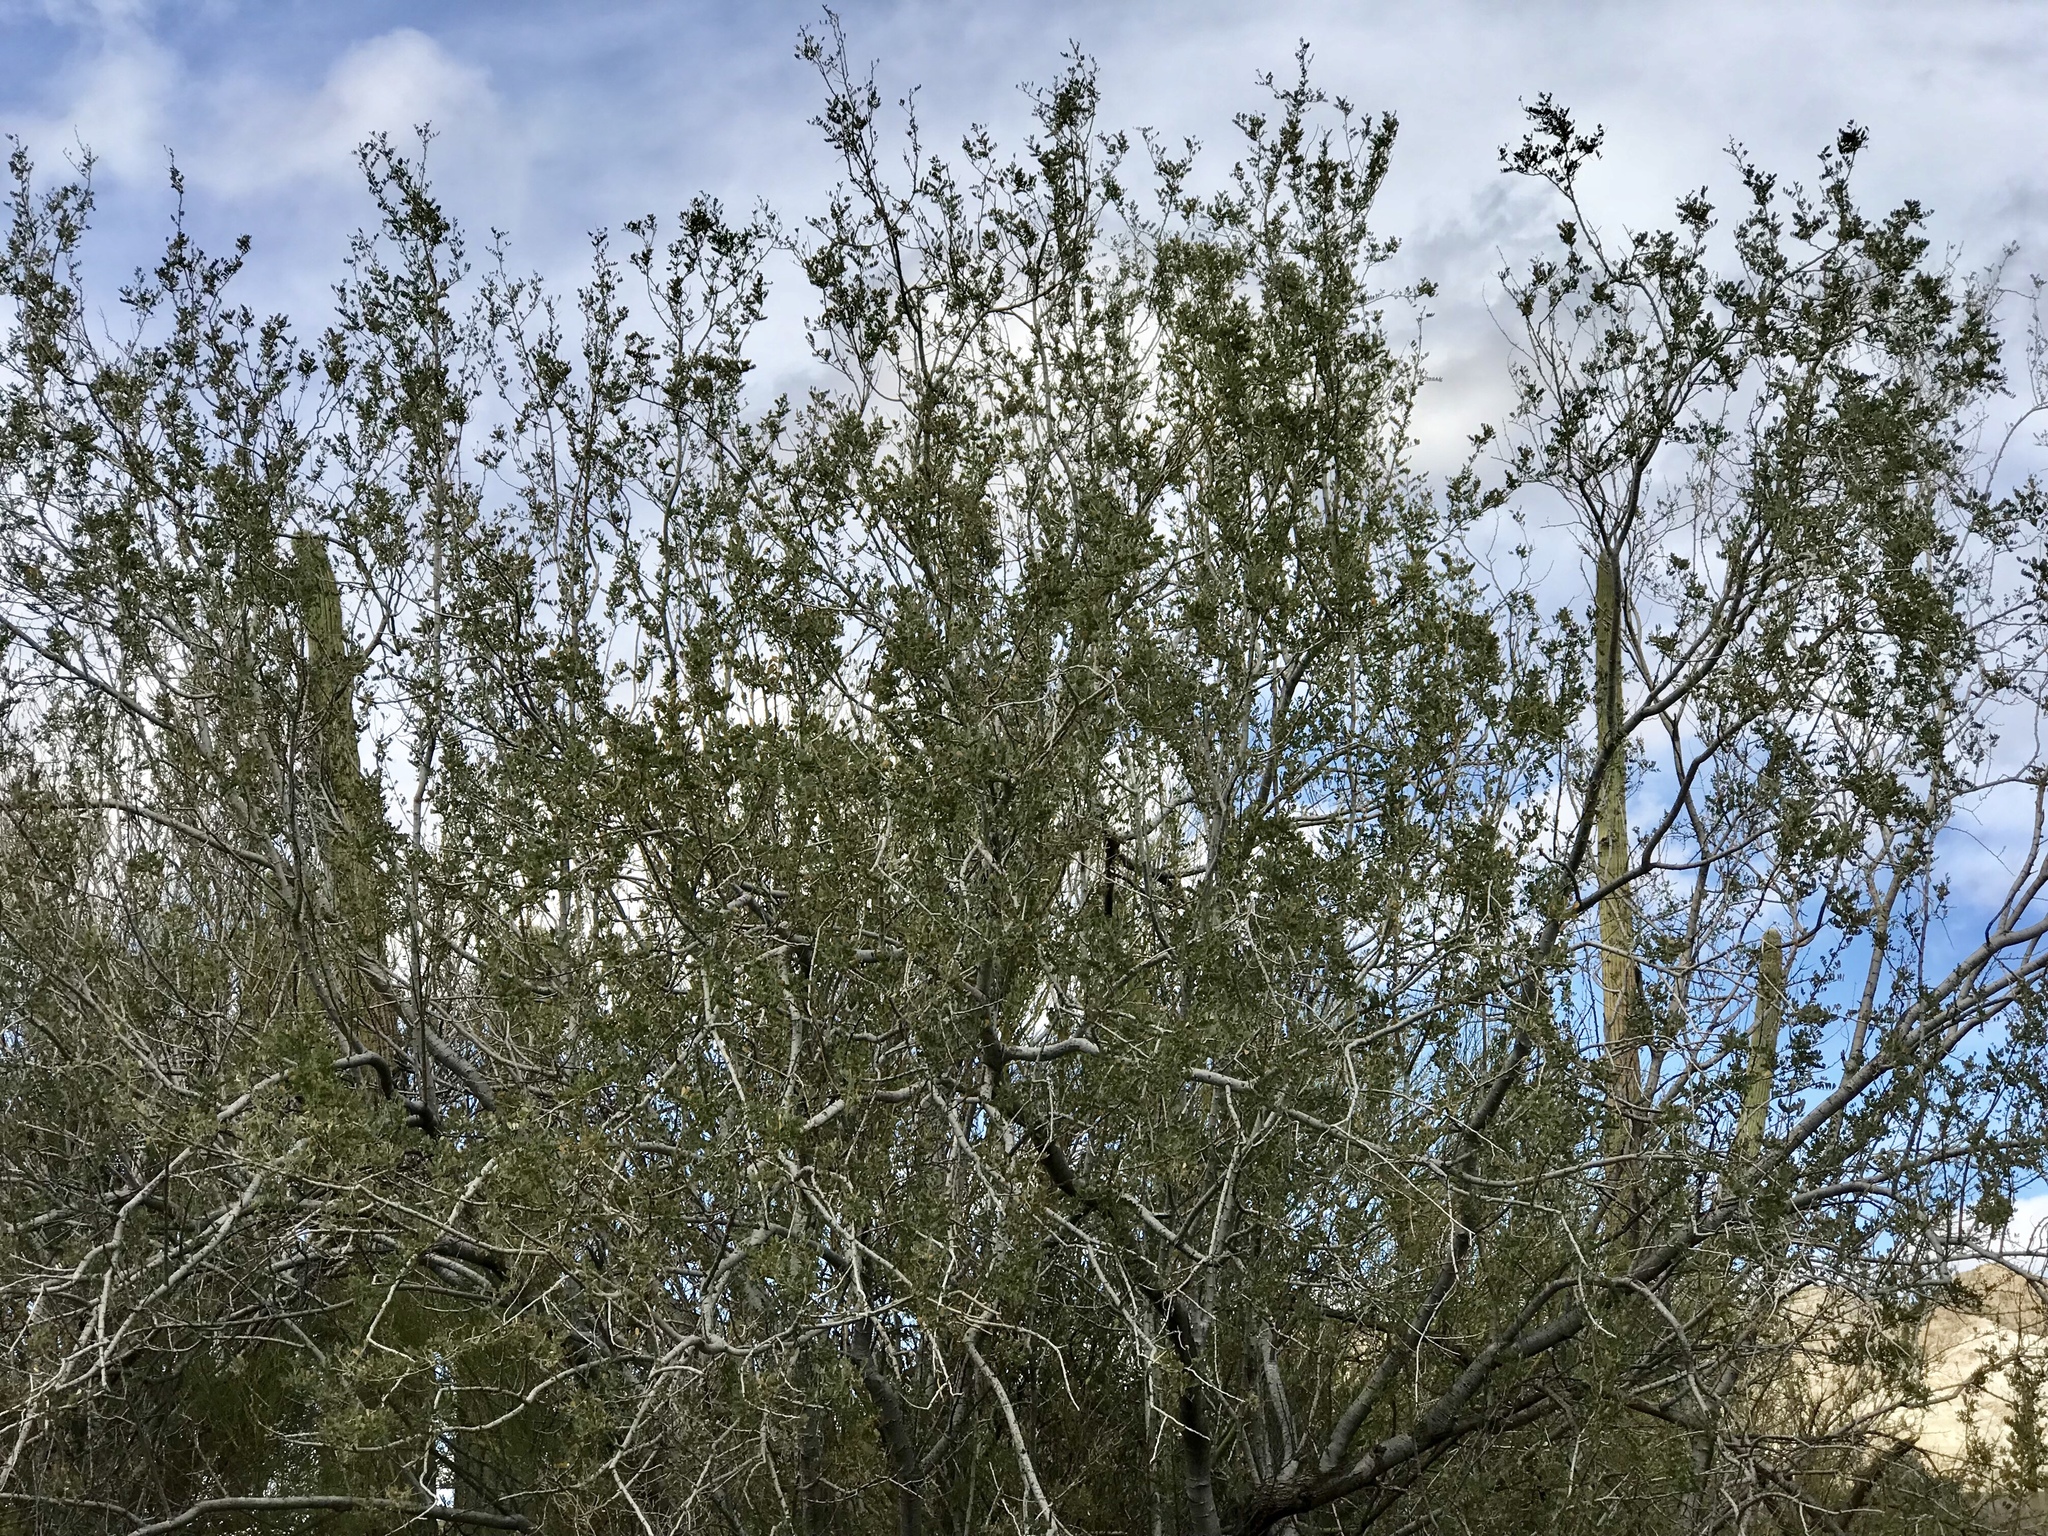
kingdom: Plantae
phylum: Tracheophyta
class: Magnoliopsida
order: Fabales
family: Fabaceae
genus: Olneya
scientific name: Olneya tesota
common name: Desert ironwood
